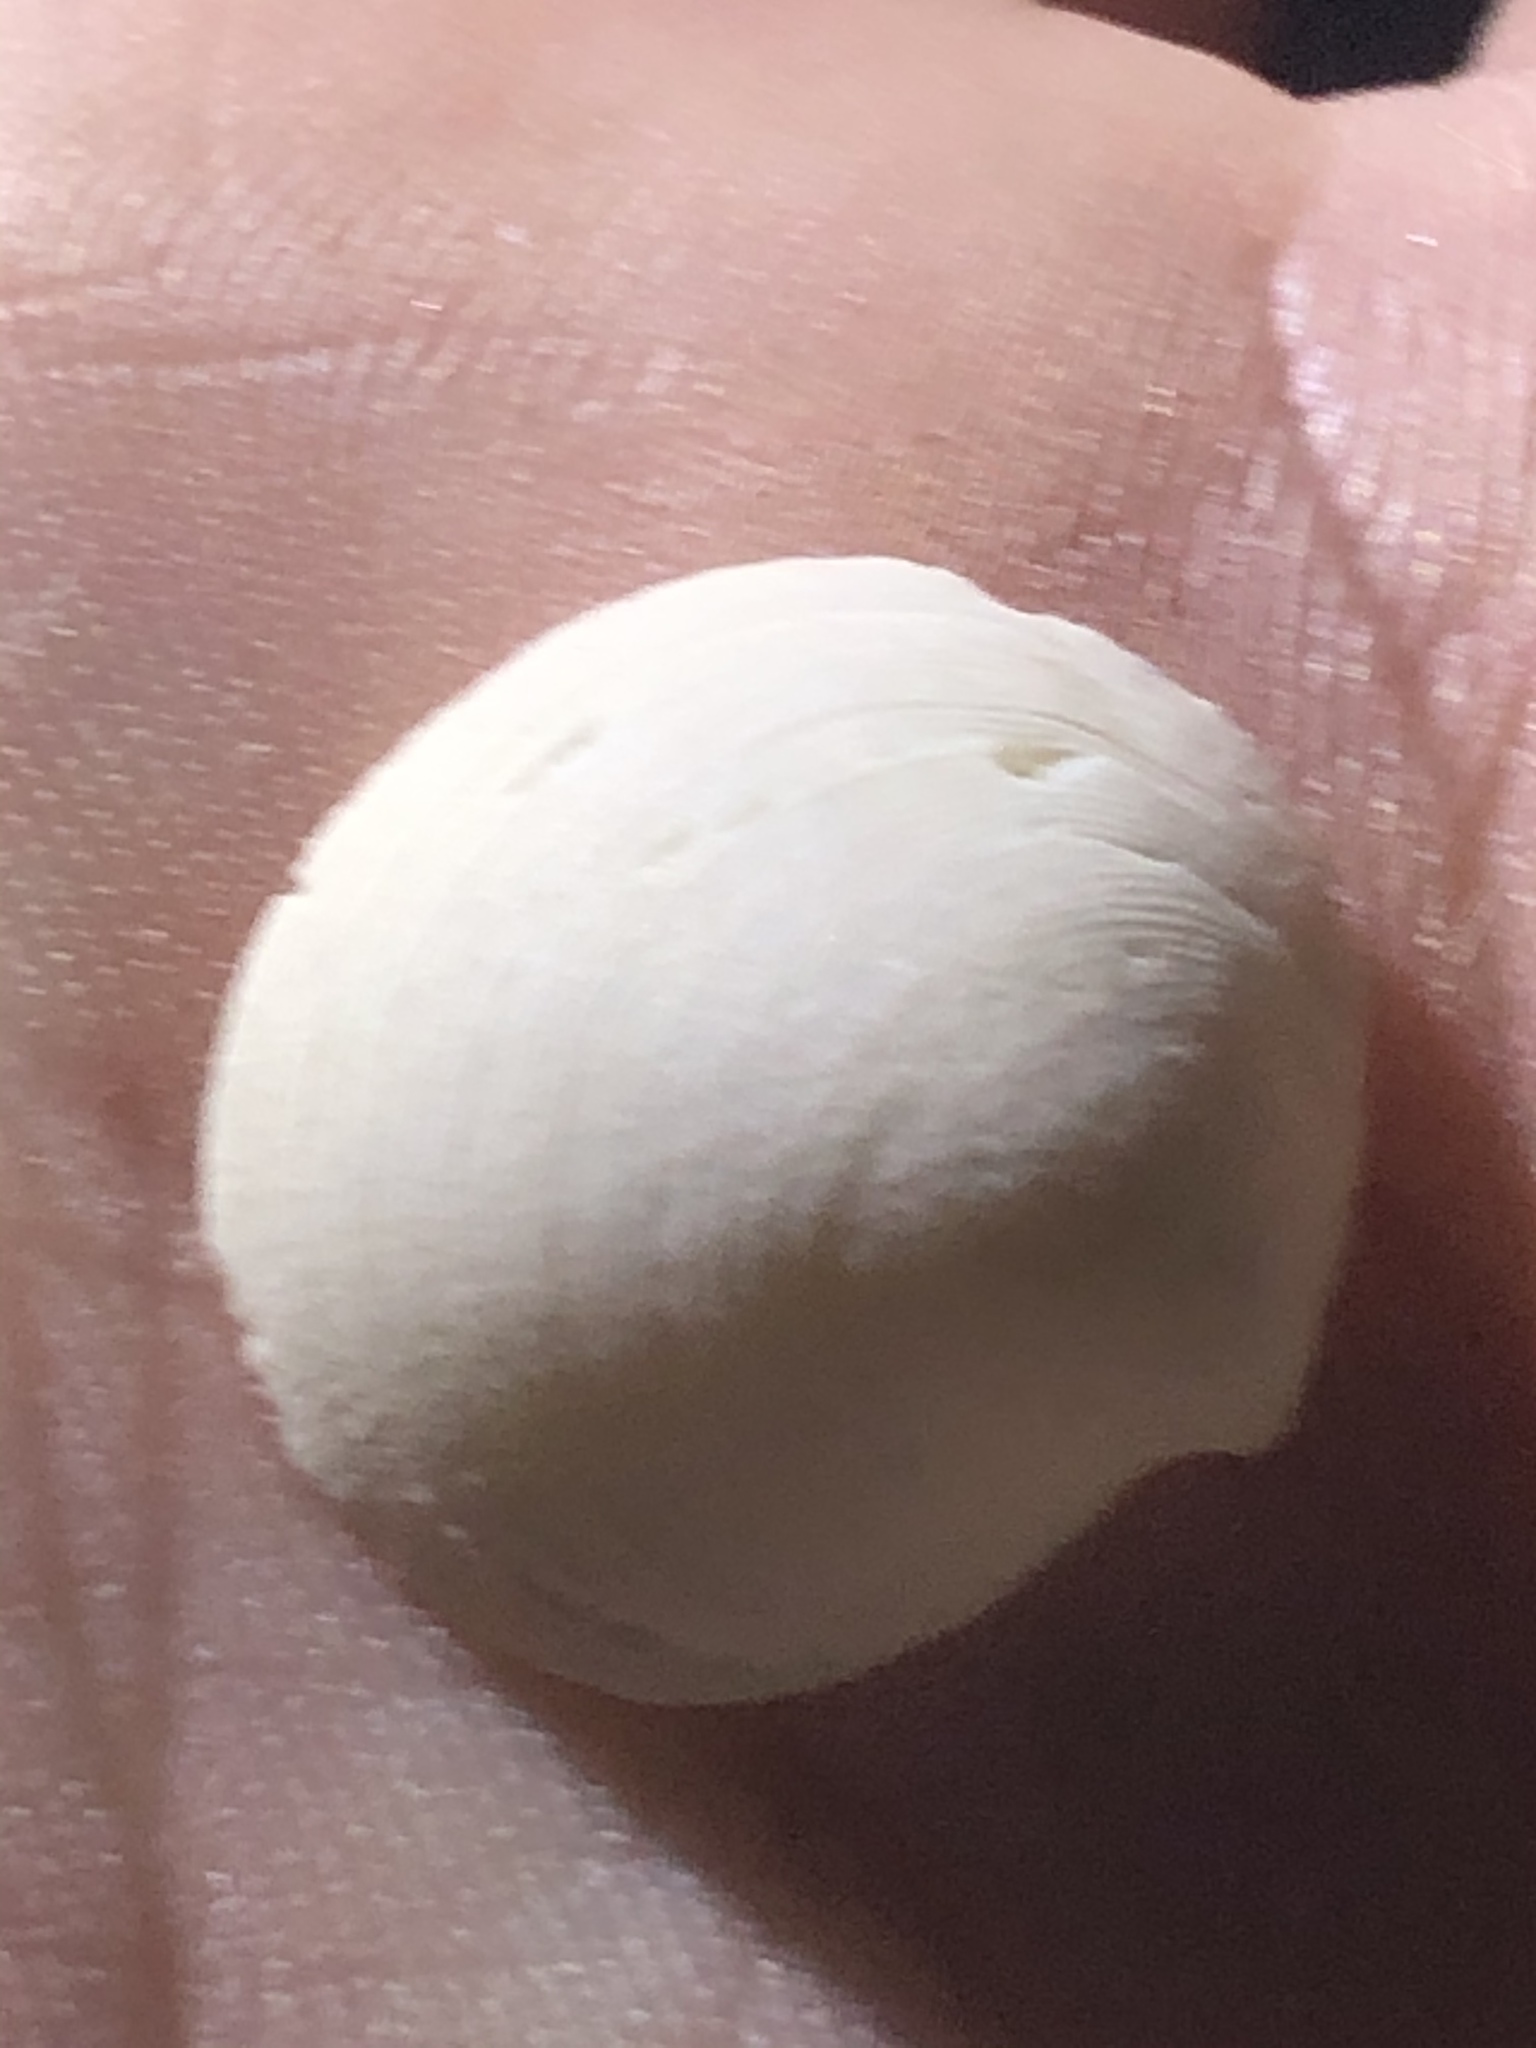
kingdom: Animalia
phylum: Mollusca
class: Bivalvia
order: Lucinida
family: Lucinidae
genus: Callucina
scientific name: Callucina keenae
